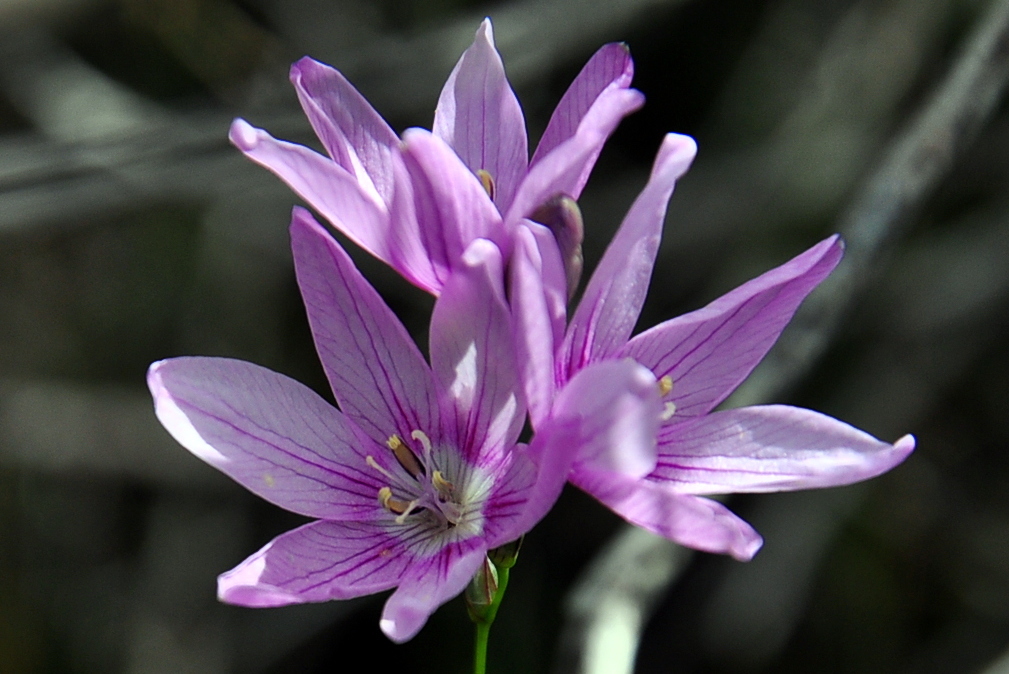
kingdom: Plantae
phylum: Tracheophyta
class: Liliopsida
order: Asparagales
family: Iridaceae
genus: Ixia
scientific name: Ixia flexuosa
